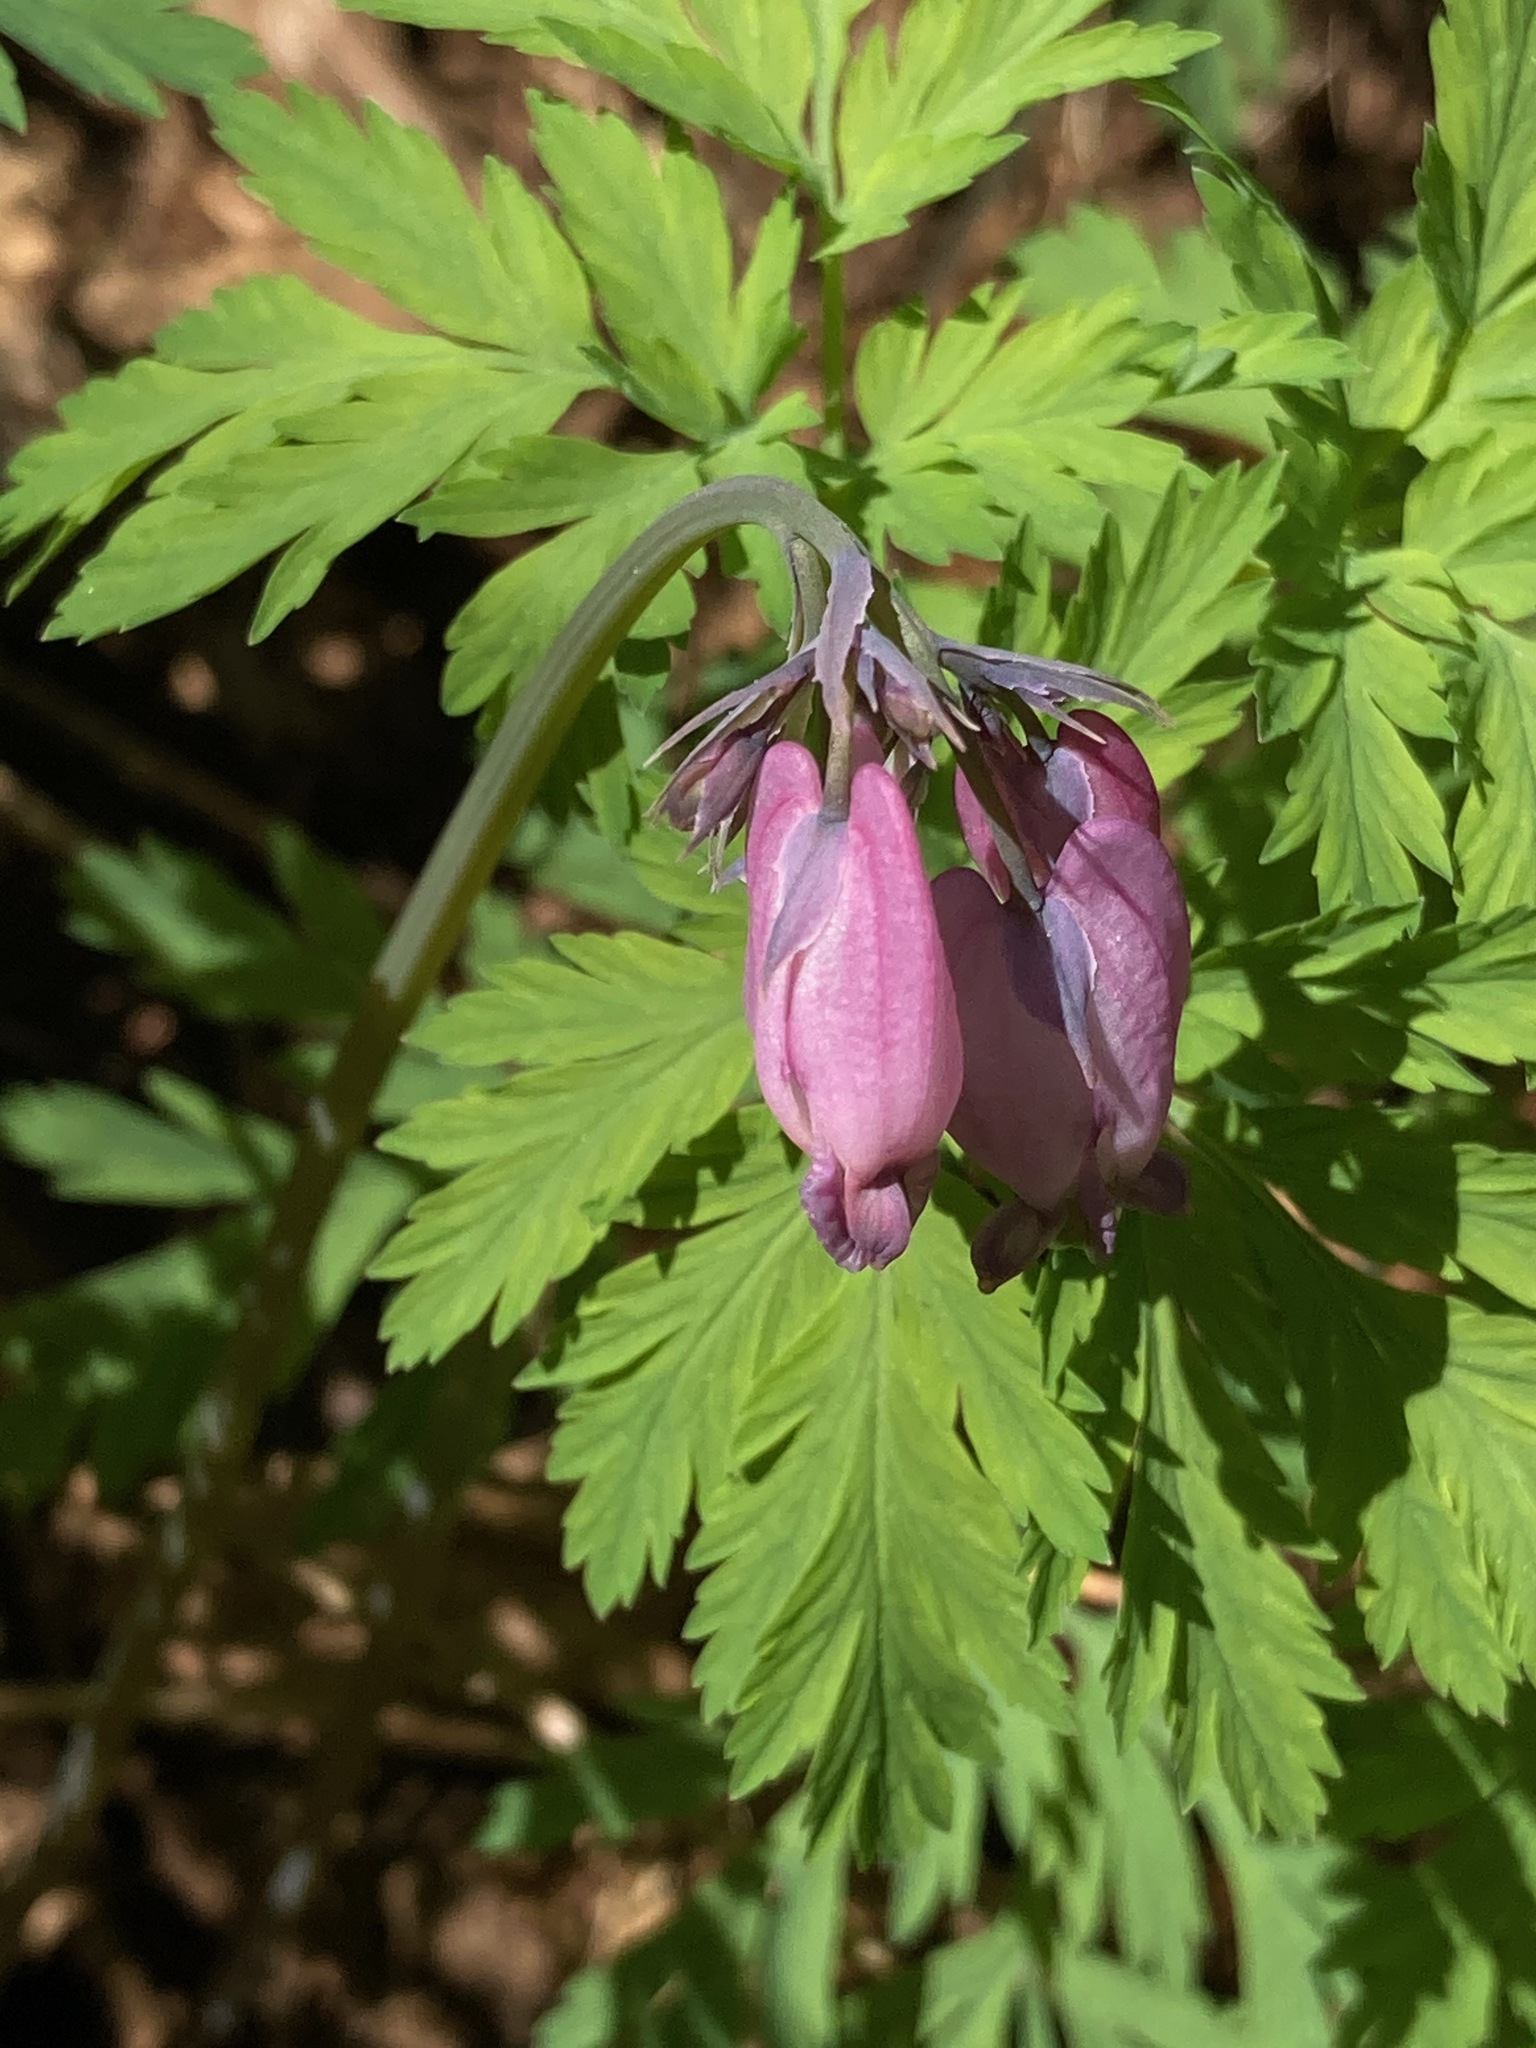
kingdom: Plantae
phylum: Tracheophyta
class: Magnoliopsida
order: Ranunculales
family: Papaveraceae
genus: Dicentra
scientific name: Dicentra formosa
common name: Bleeding-heart
